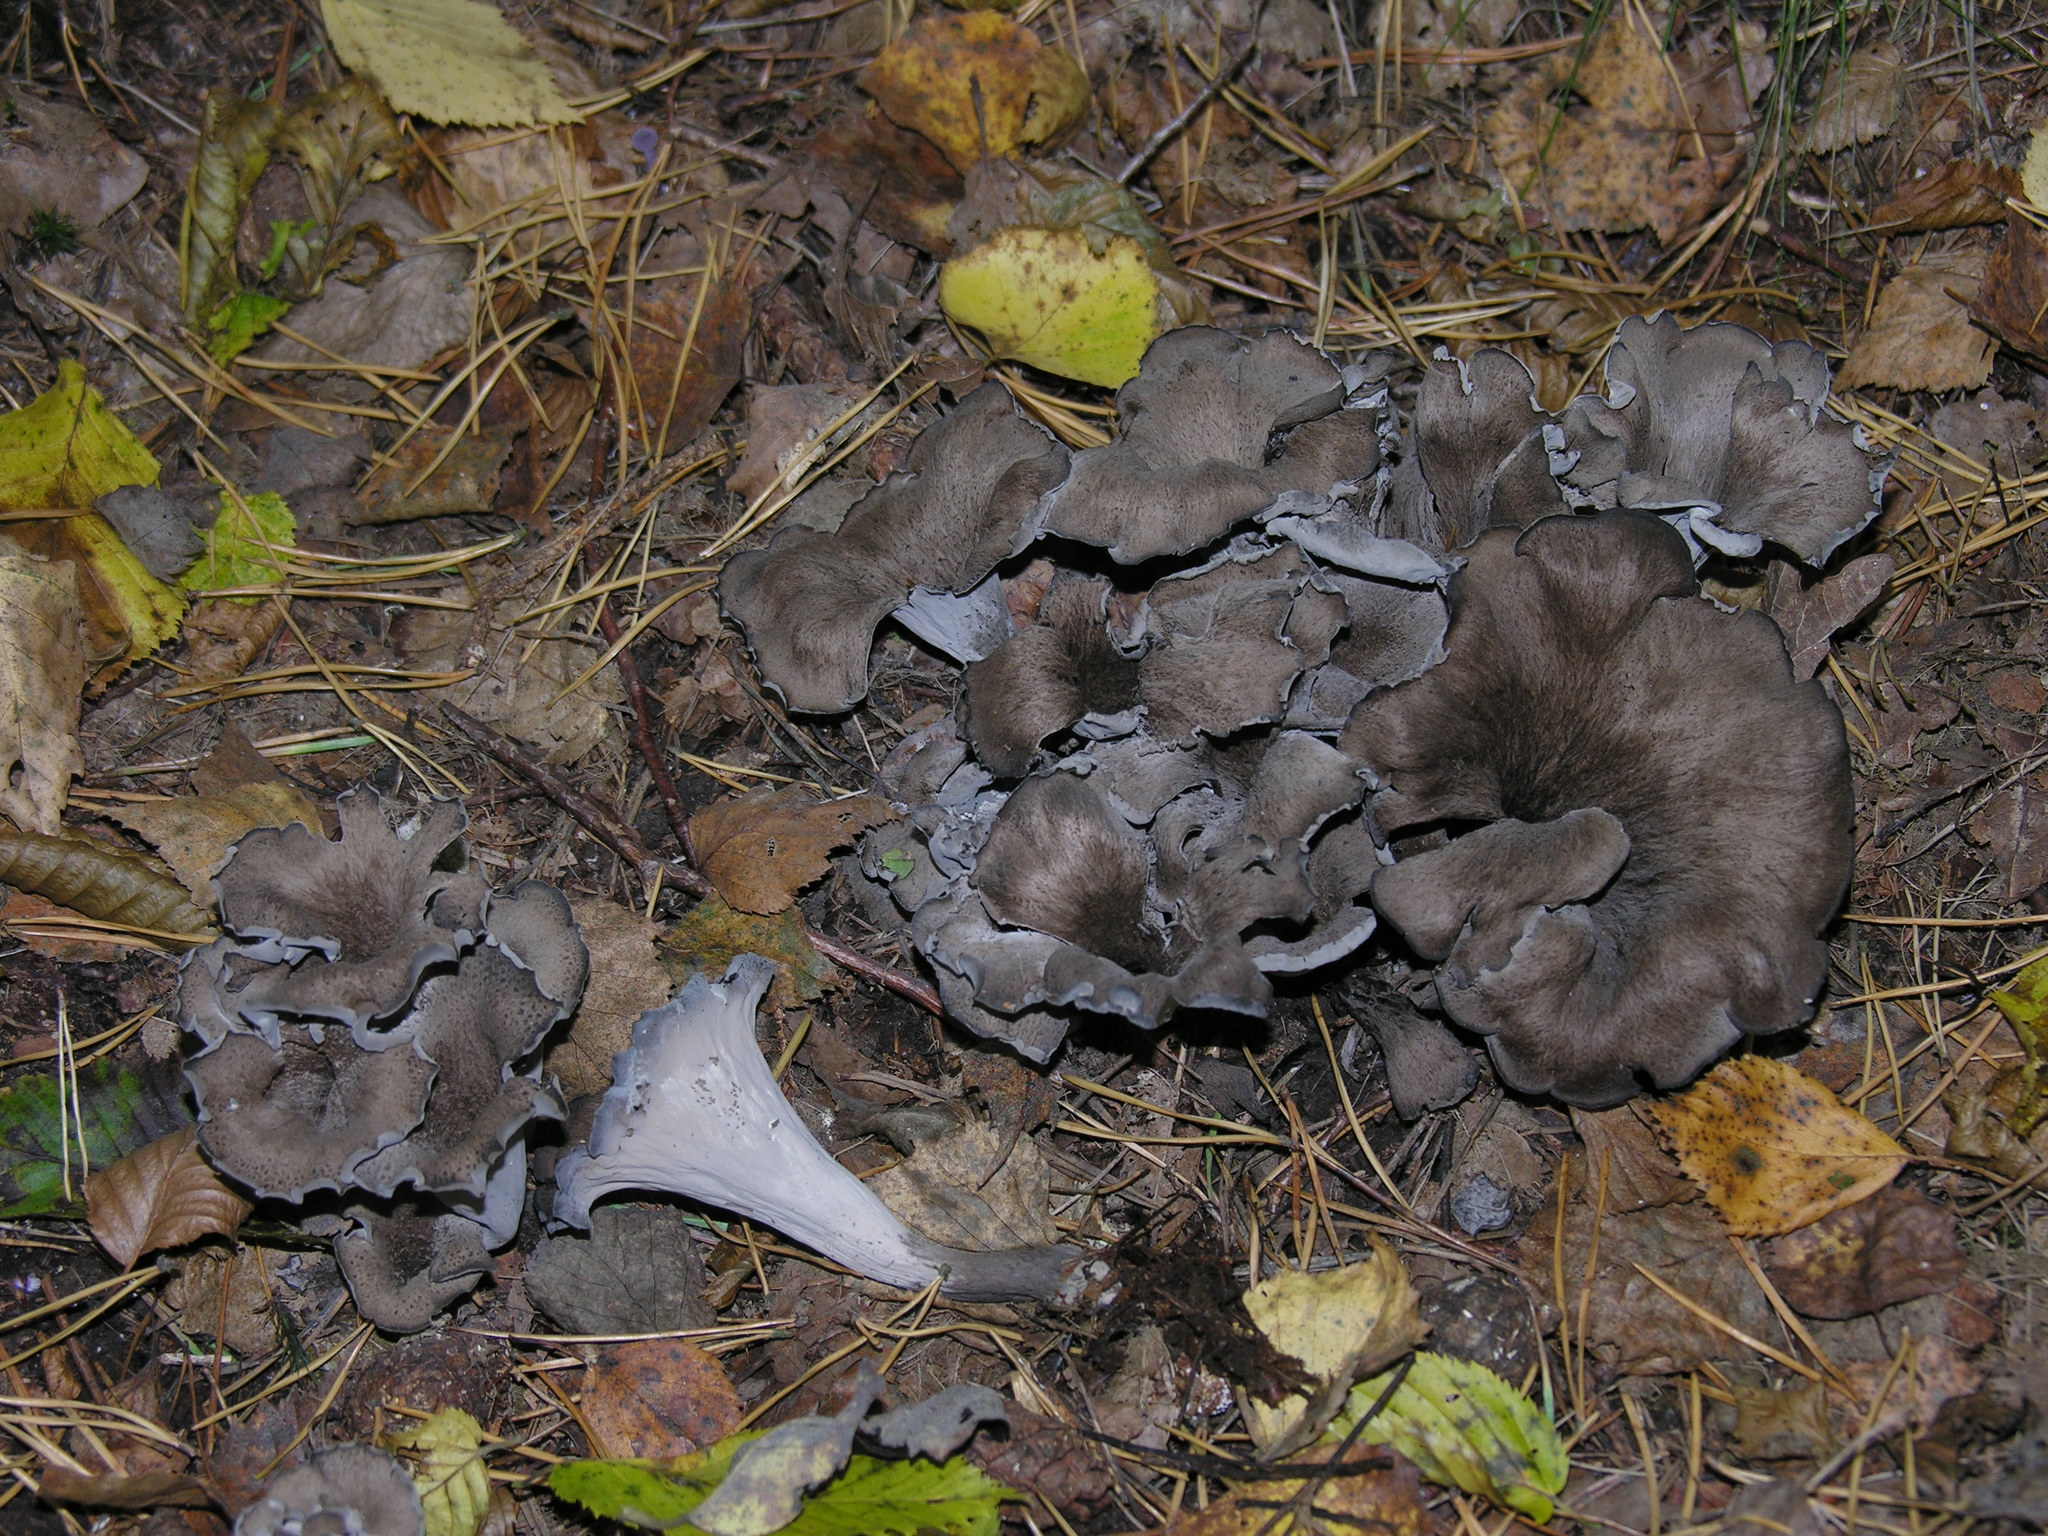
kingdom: Fungi
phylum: Basidiomycota
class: Agaricomycetes
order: Cantharellales
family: Hydnaceae
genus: Craterellus
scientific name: Craterellus cornucopioides
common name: Horn of plenty
